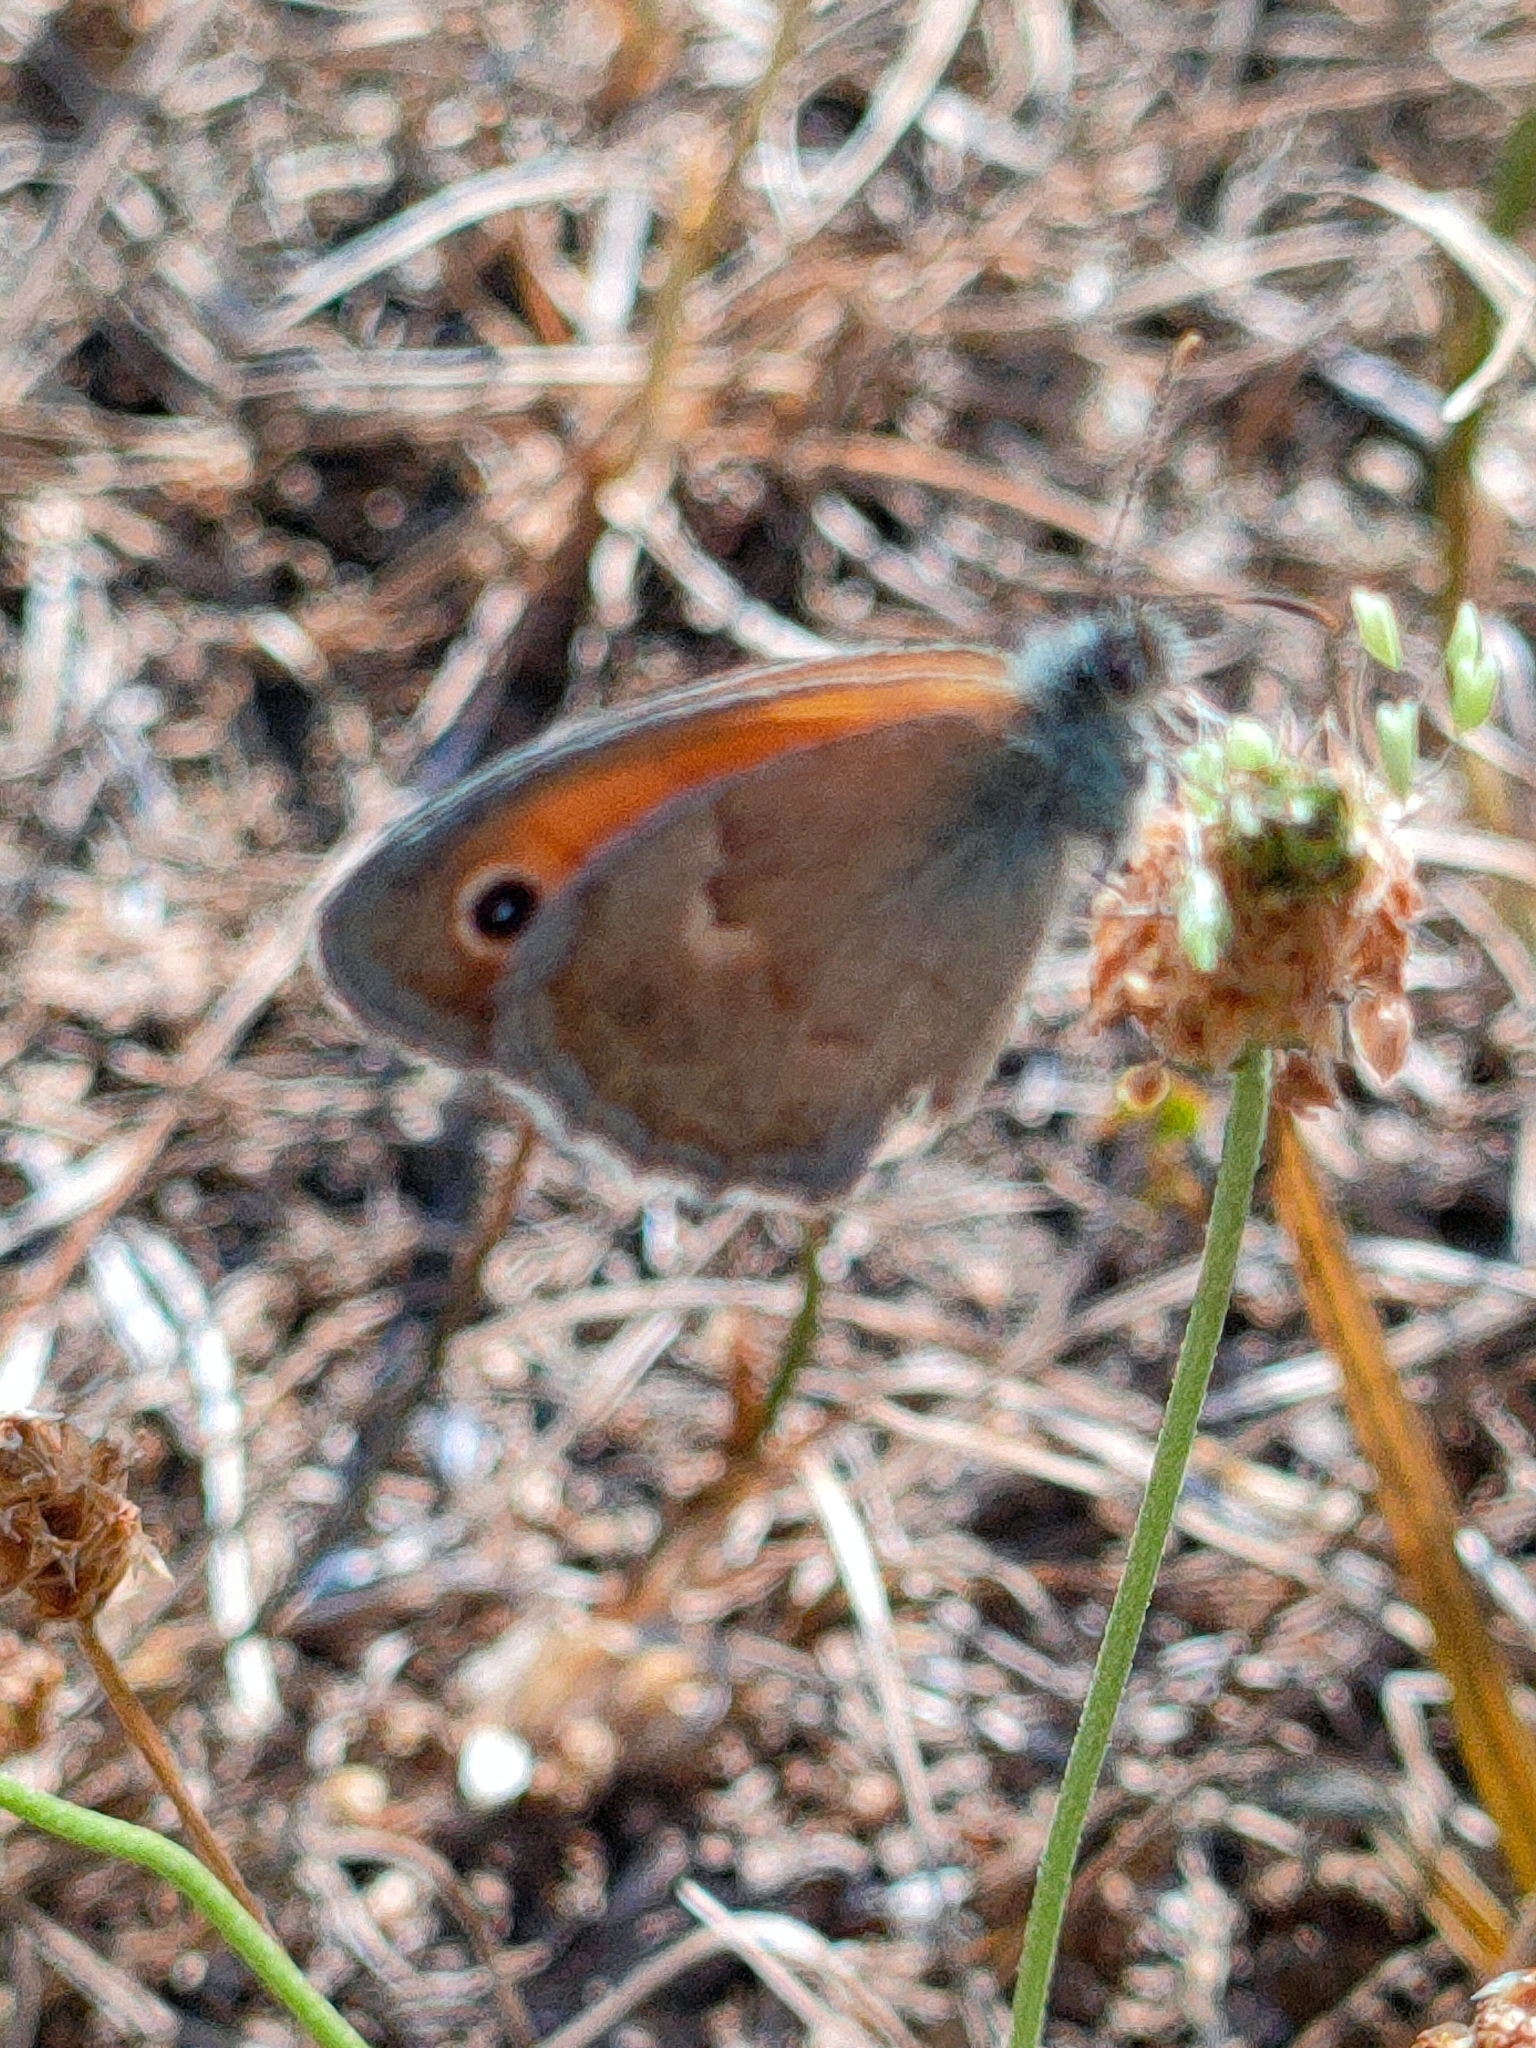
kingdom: Animalia
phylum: Arthropoda
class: Insecta
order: Lepidoptera
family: Nymphalidae
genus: Coenonympha
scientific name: Coenonympha pamphilus
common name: Small heath
